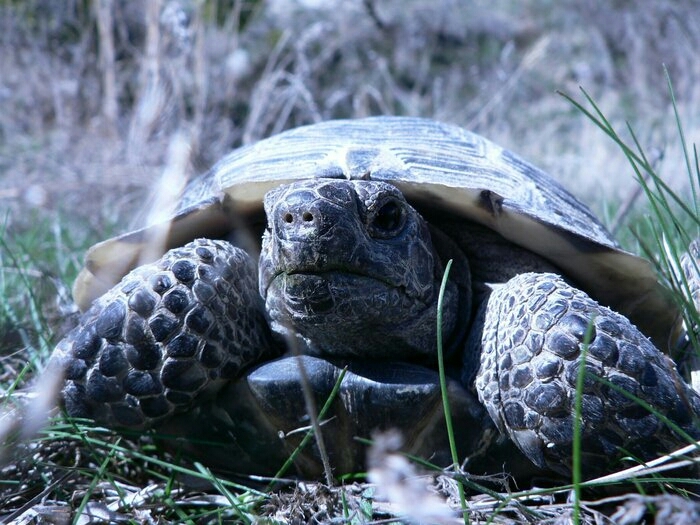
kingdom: Animalia
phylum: Chordata
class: Testudines
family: Testudinidae
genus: Testudo
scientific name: Testudo graeca
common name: Common tortoise
